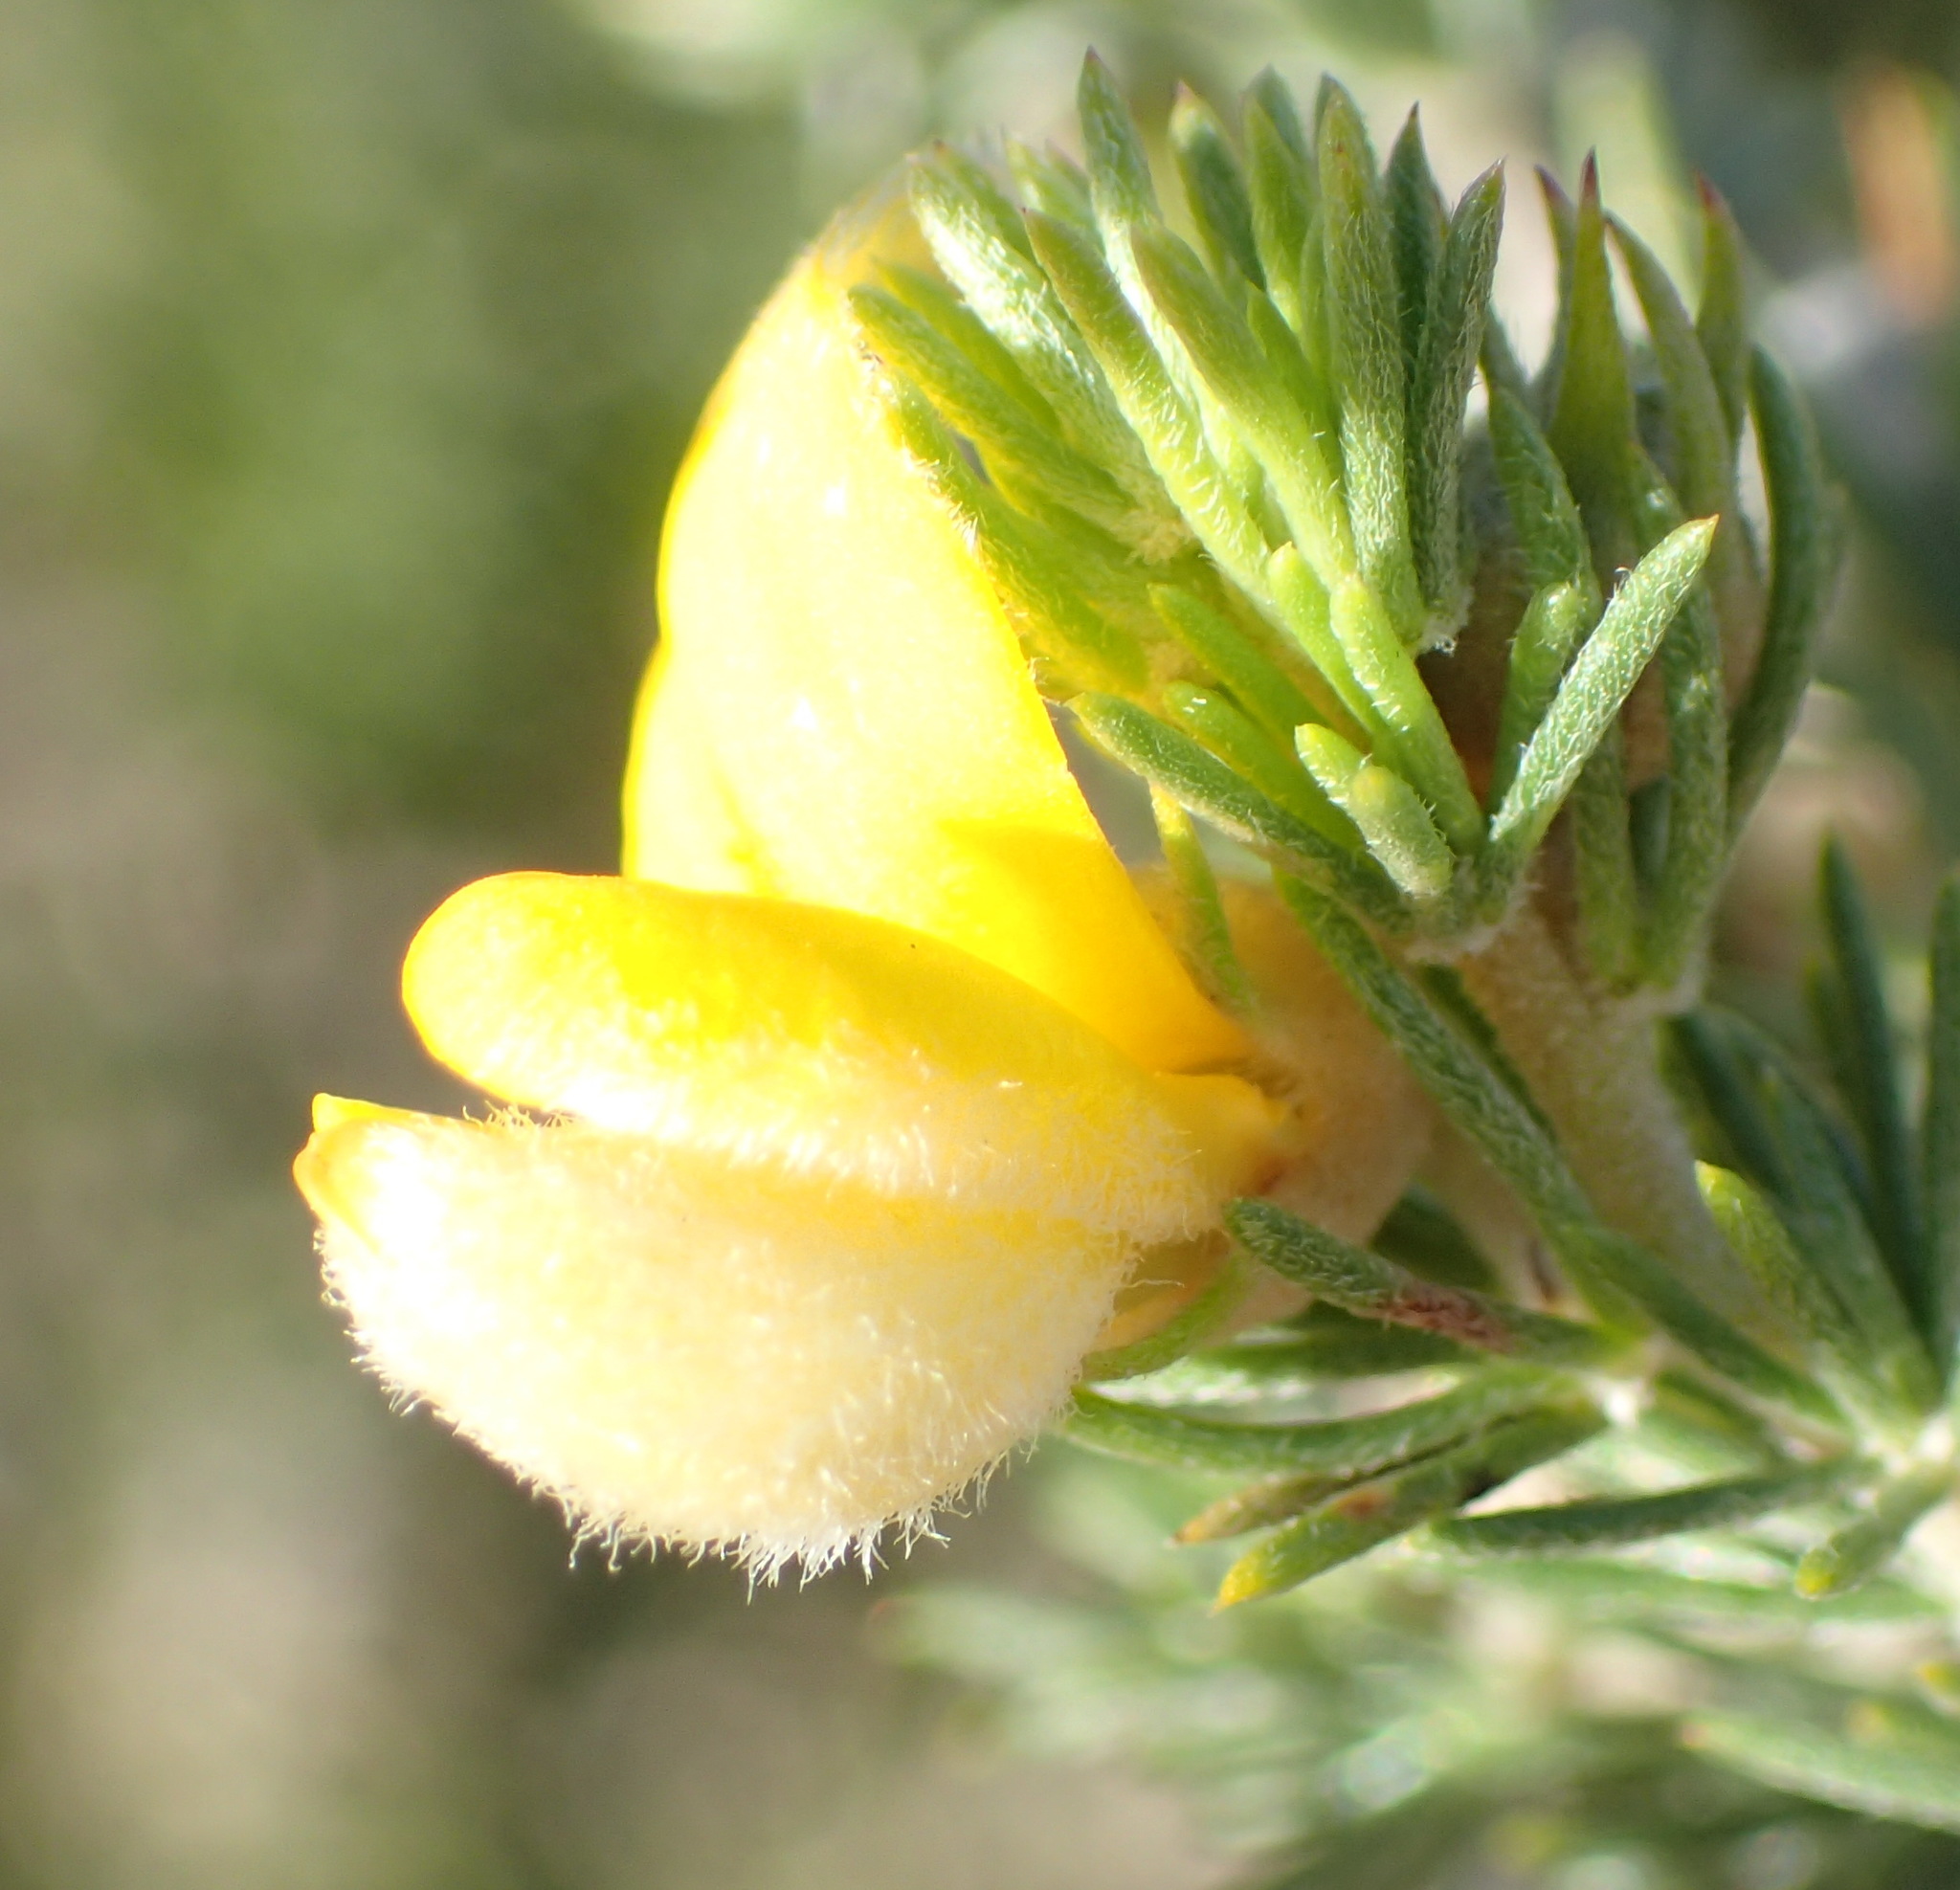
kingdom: Plantae
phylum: Tracheophyta
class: Magnoliopsida
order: Fabales
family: Fabaceae
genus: Aspalathus
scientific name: Aspalathus kougaensis
